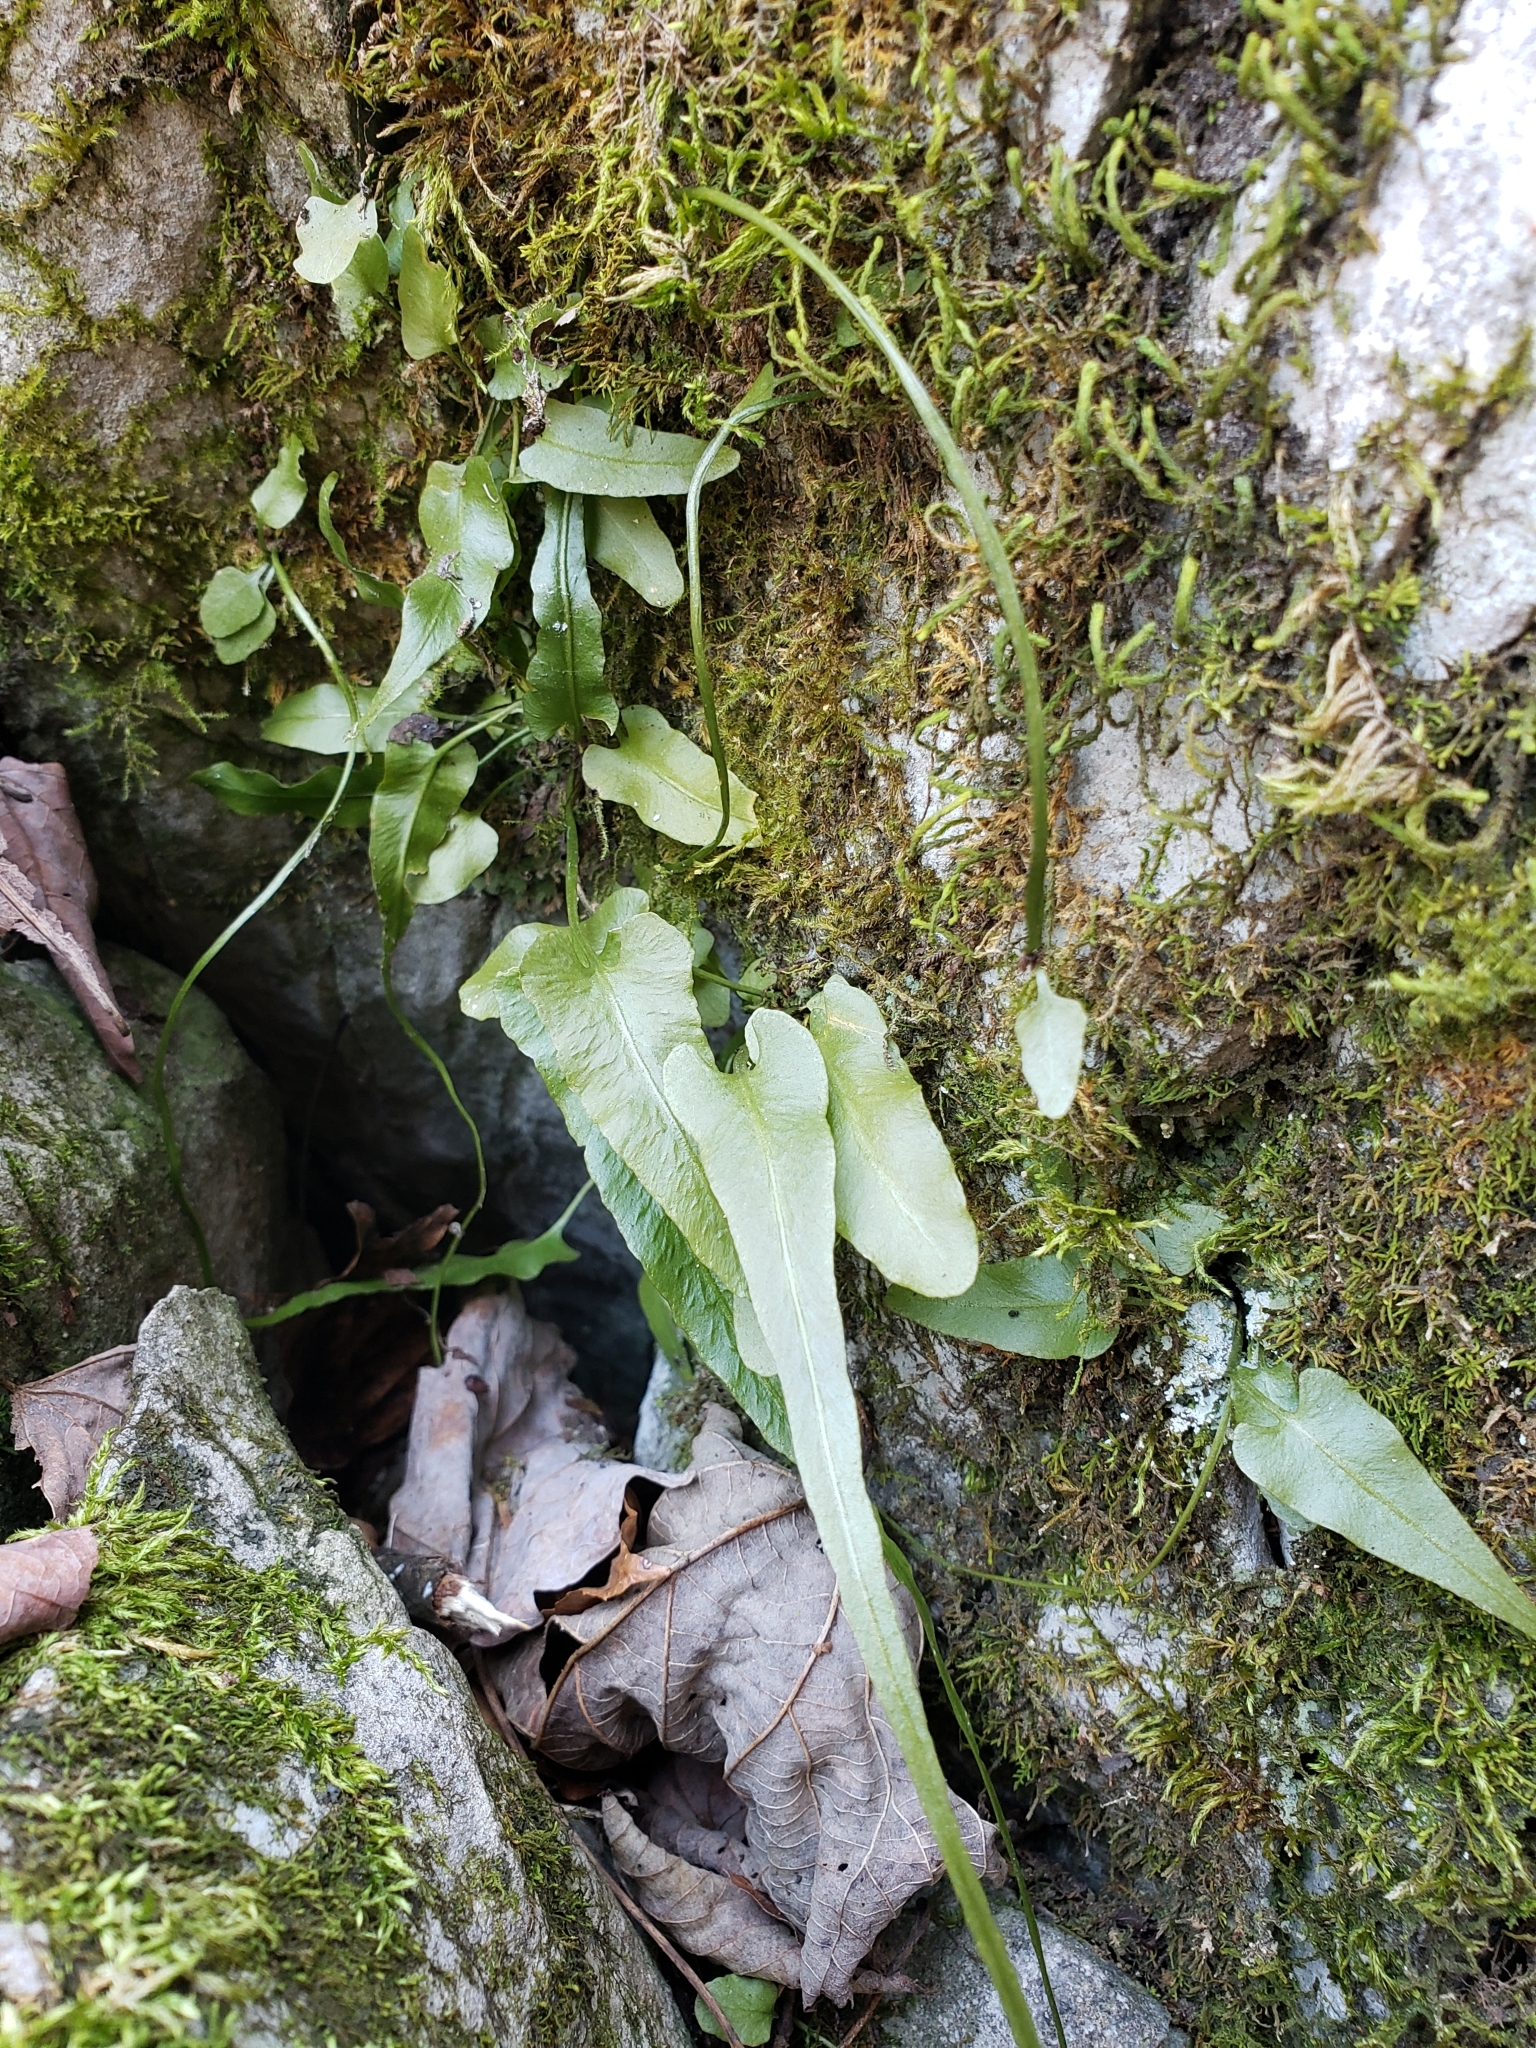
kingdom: Plantae
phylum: Tracheophyta
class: Polypodiopsida
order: Polypodiales
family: Aspleniaceae
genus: Asplenium
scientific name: Asplenium rhizophyllum
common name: Walking fern
